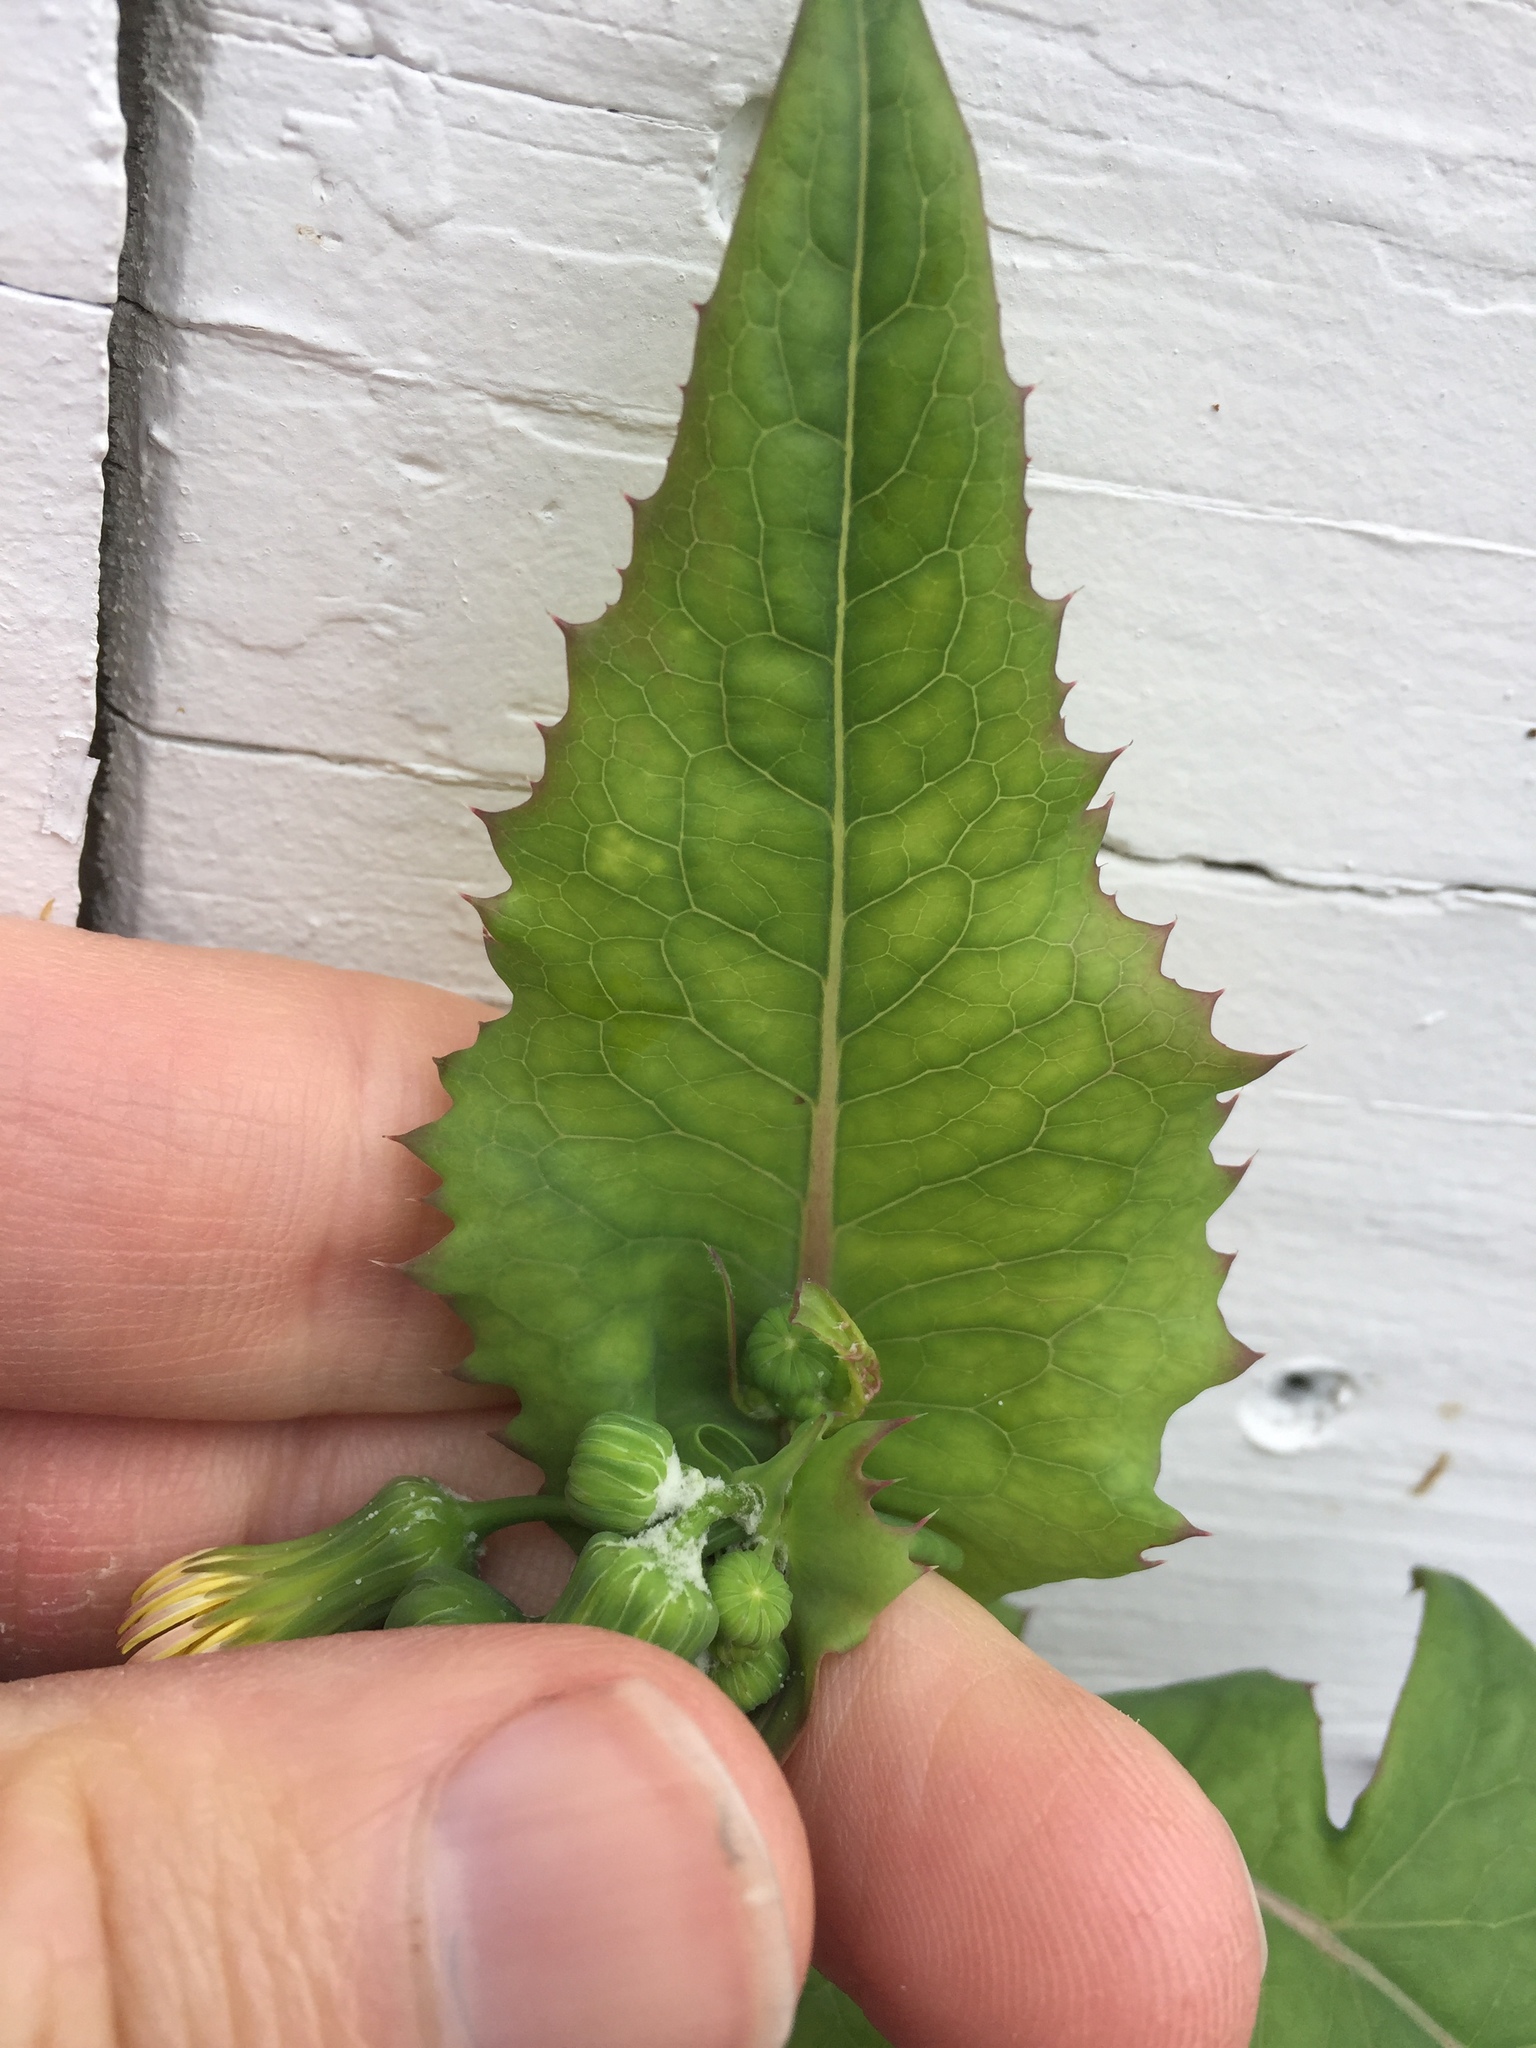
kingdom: Plantae
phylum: Tracheophyta
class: Magnoliopsida
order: Asterales
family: Asteraceae
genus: Sonchus
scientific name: Sonchus oleraceus
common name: Common sowthistle
